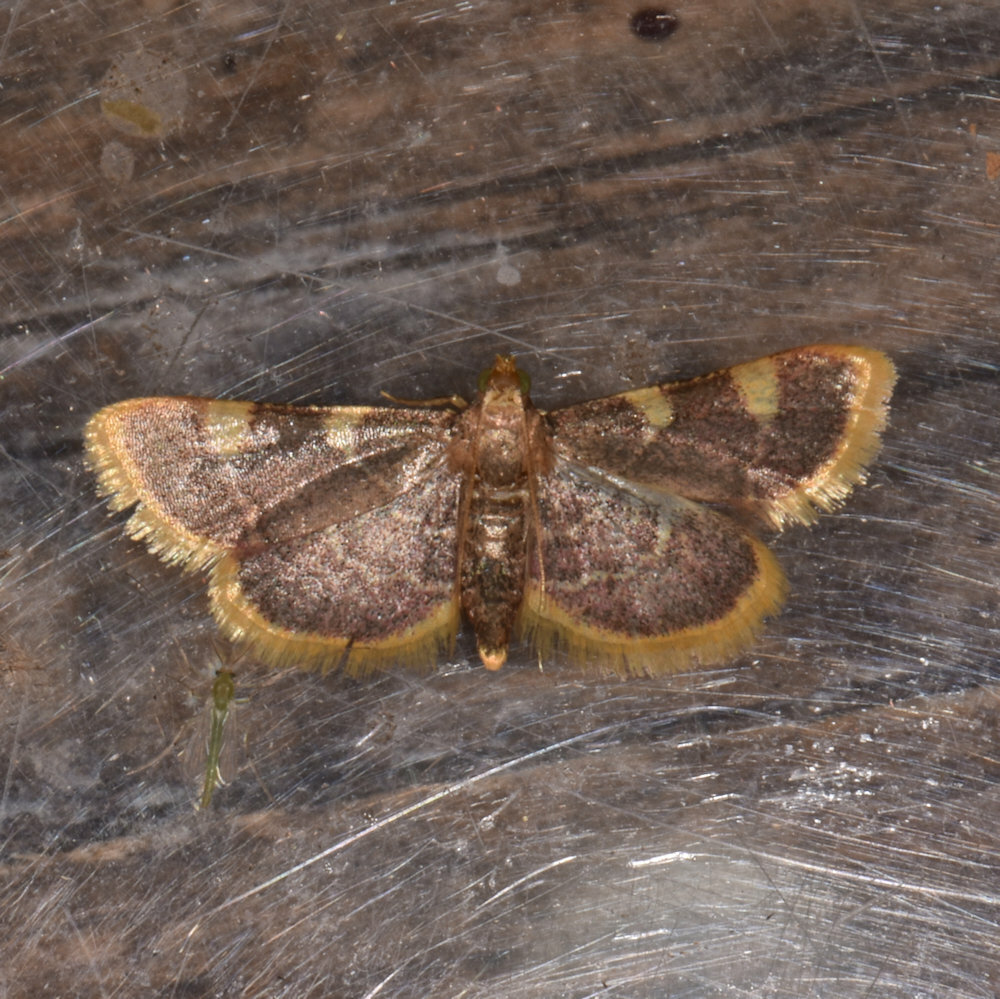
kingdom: Animalia
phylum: Arthropoda
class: Insecta
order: Lepidoptera
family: Pyralidae
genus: Hypsopygia
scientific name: Hypsopygia costalis
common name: Gold triangle
